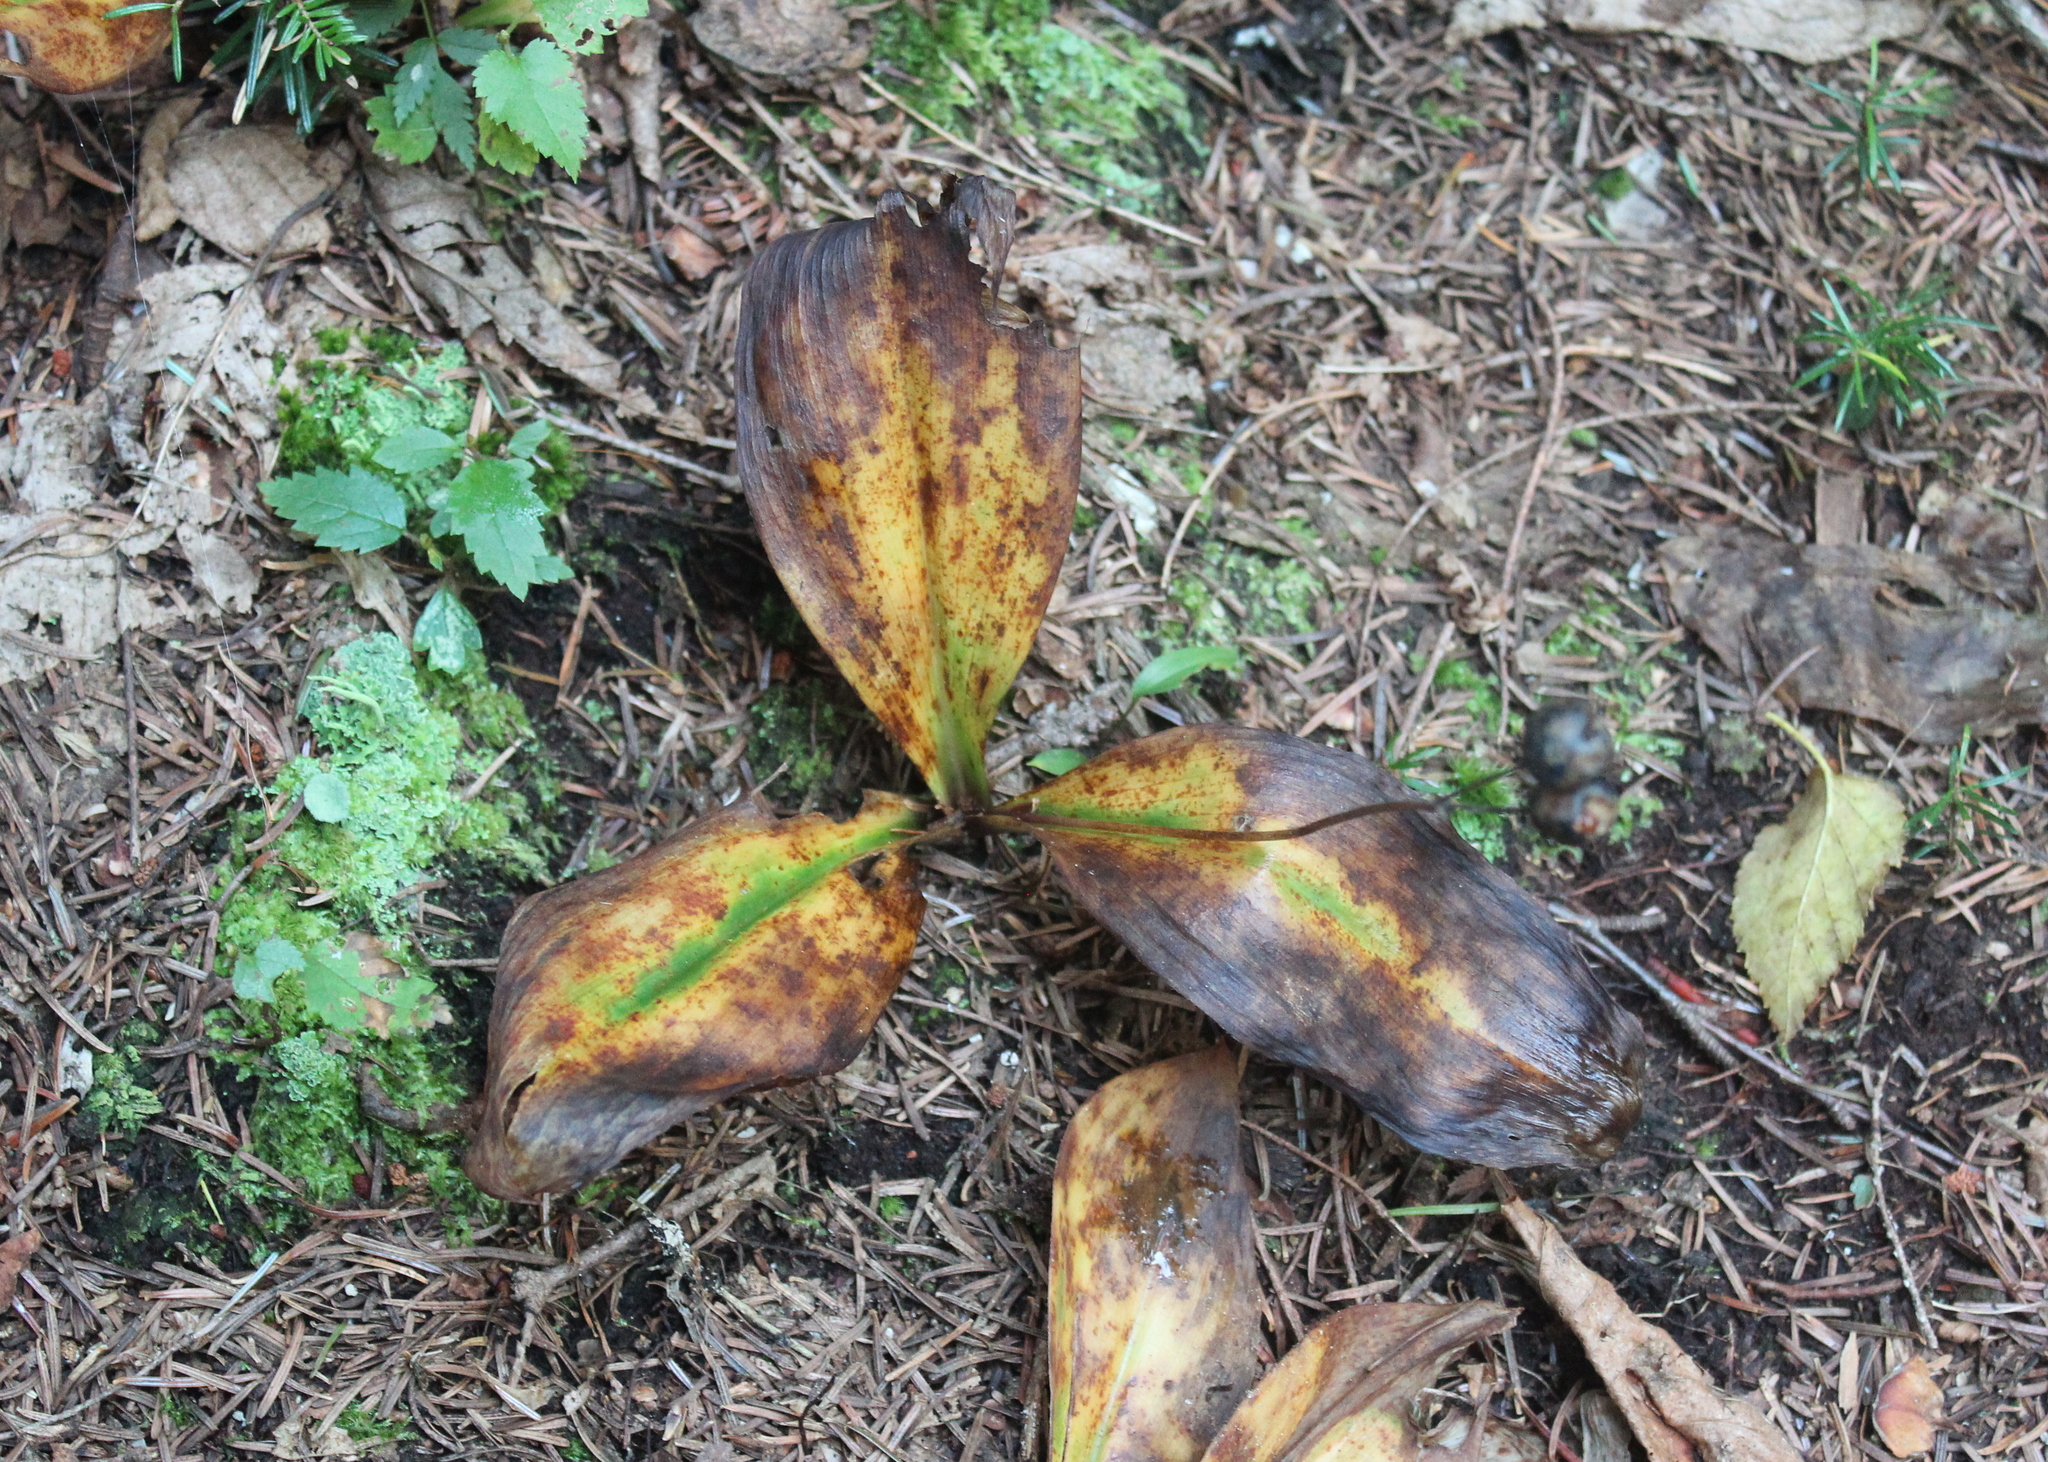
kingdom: Plantae
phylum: Tracheophyta
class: Liliopsida
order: Liliales
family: Liliaceae
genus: Clintonia
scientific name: Clintonia borealis
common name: Yellow clintonia
